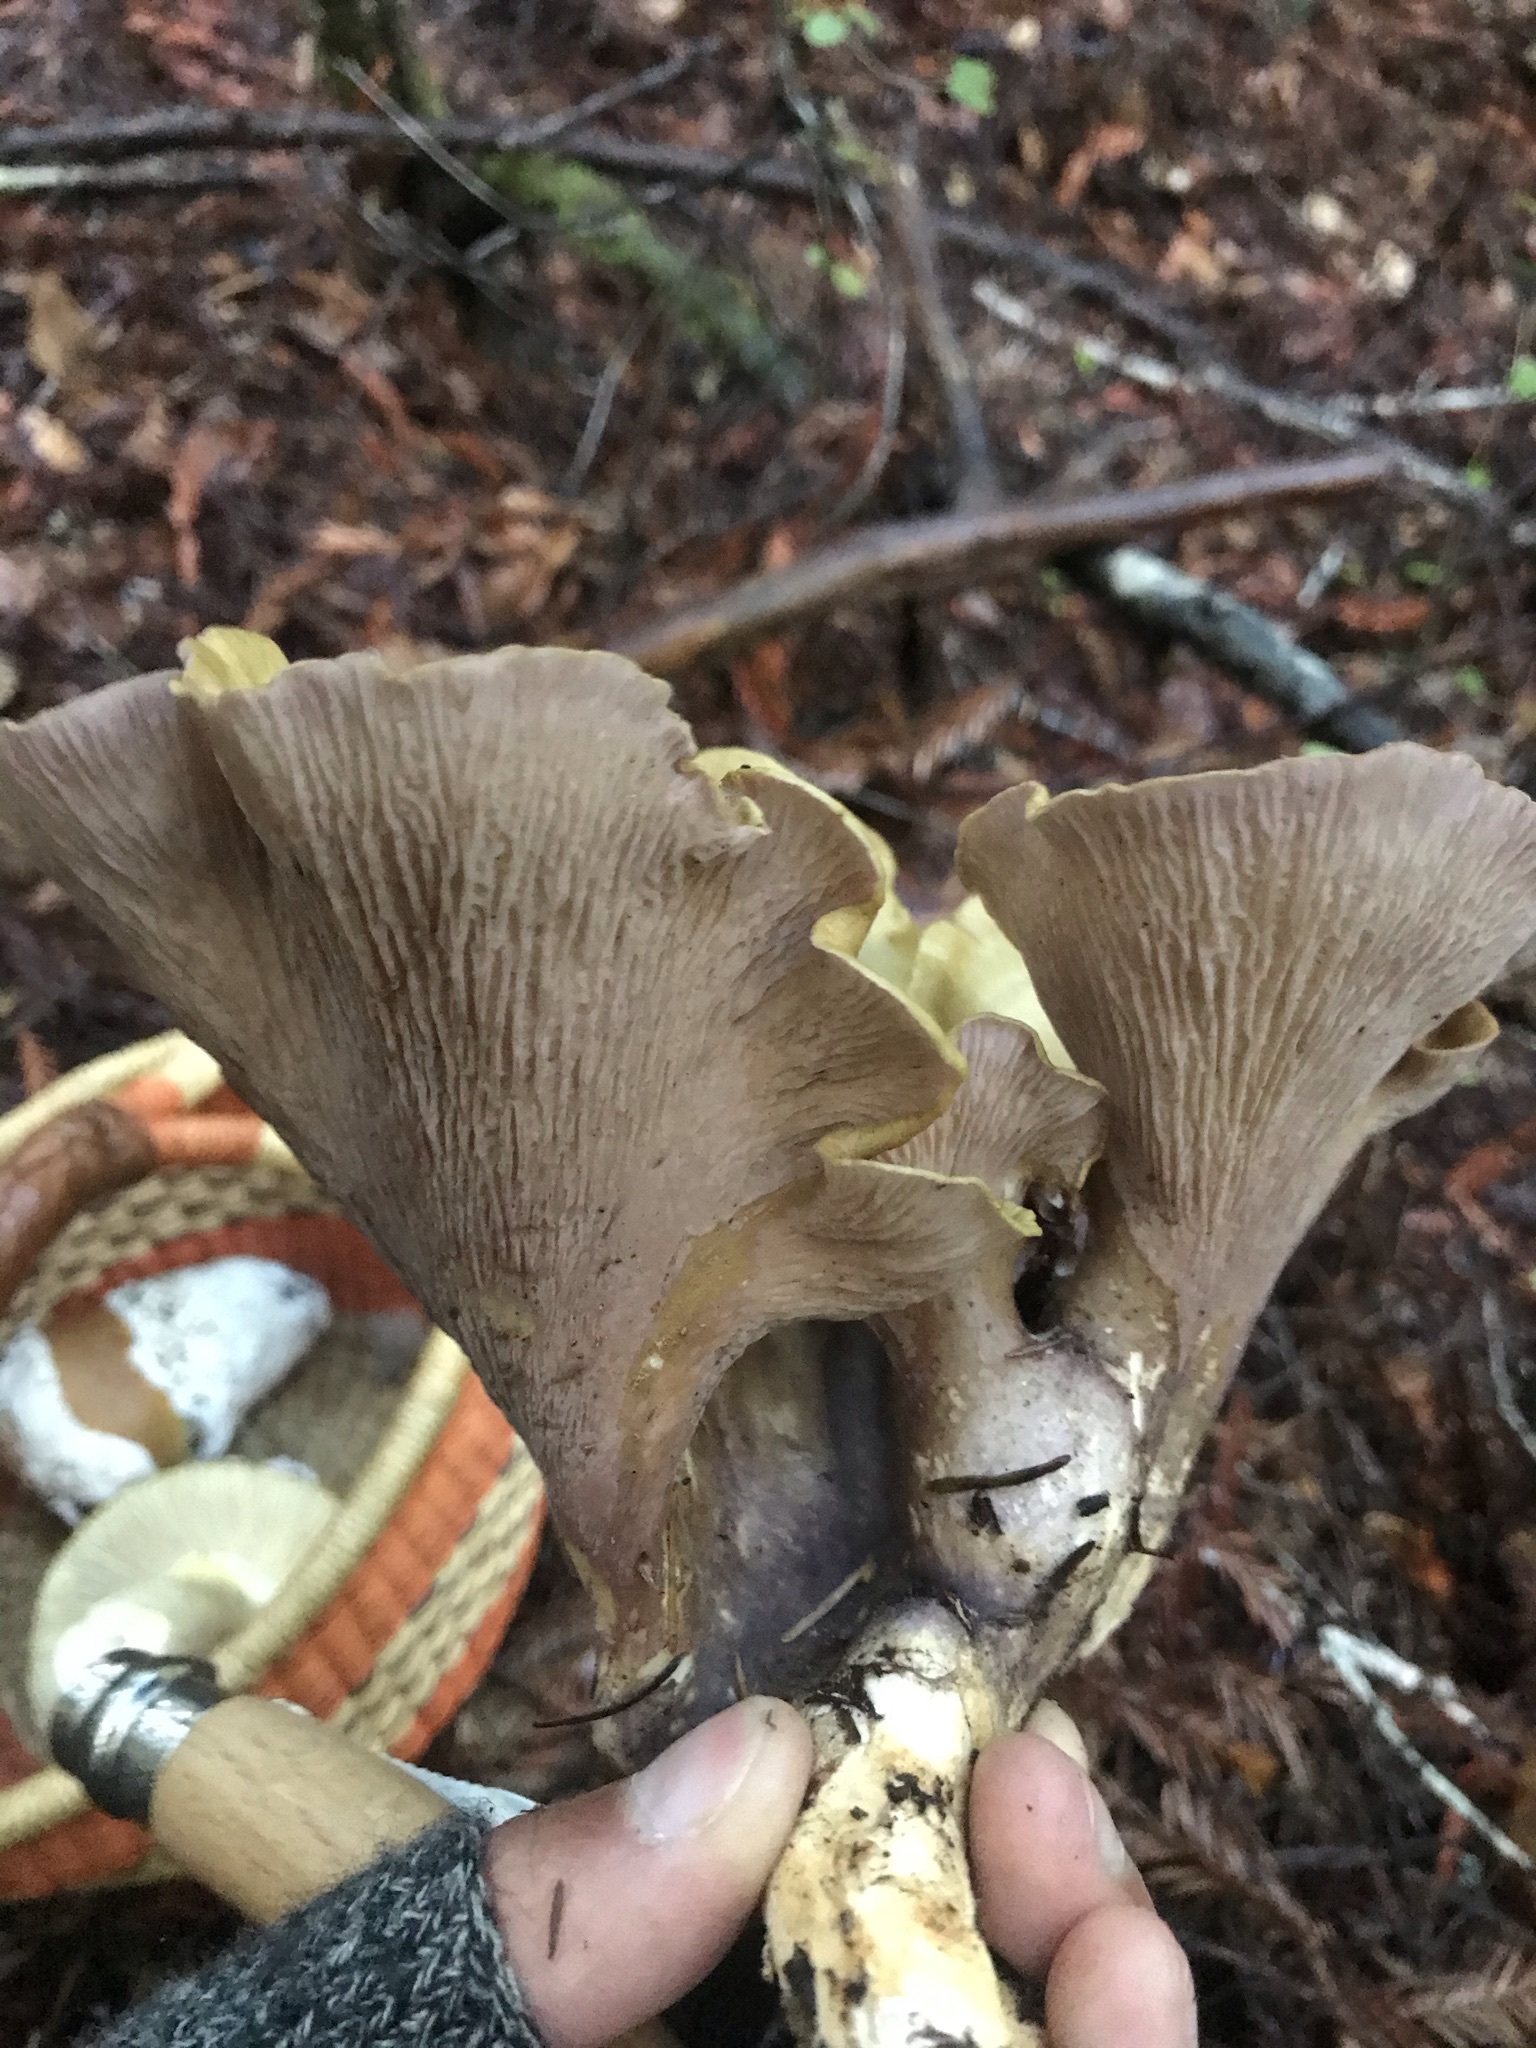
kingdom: Fungi
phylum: Basidiomycota
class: Agaricomycetes
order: Gomphales
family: Gomphaceae
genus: Gomphus
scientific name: Gomphus clavatus
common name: Pig's ear
